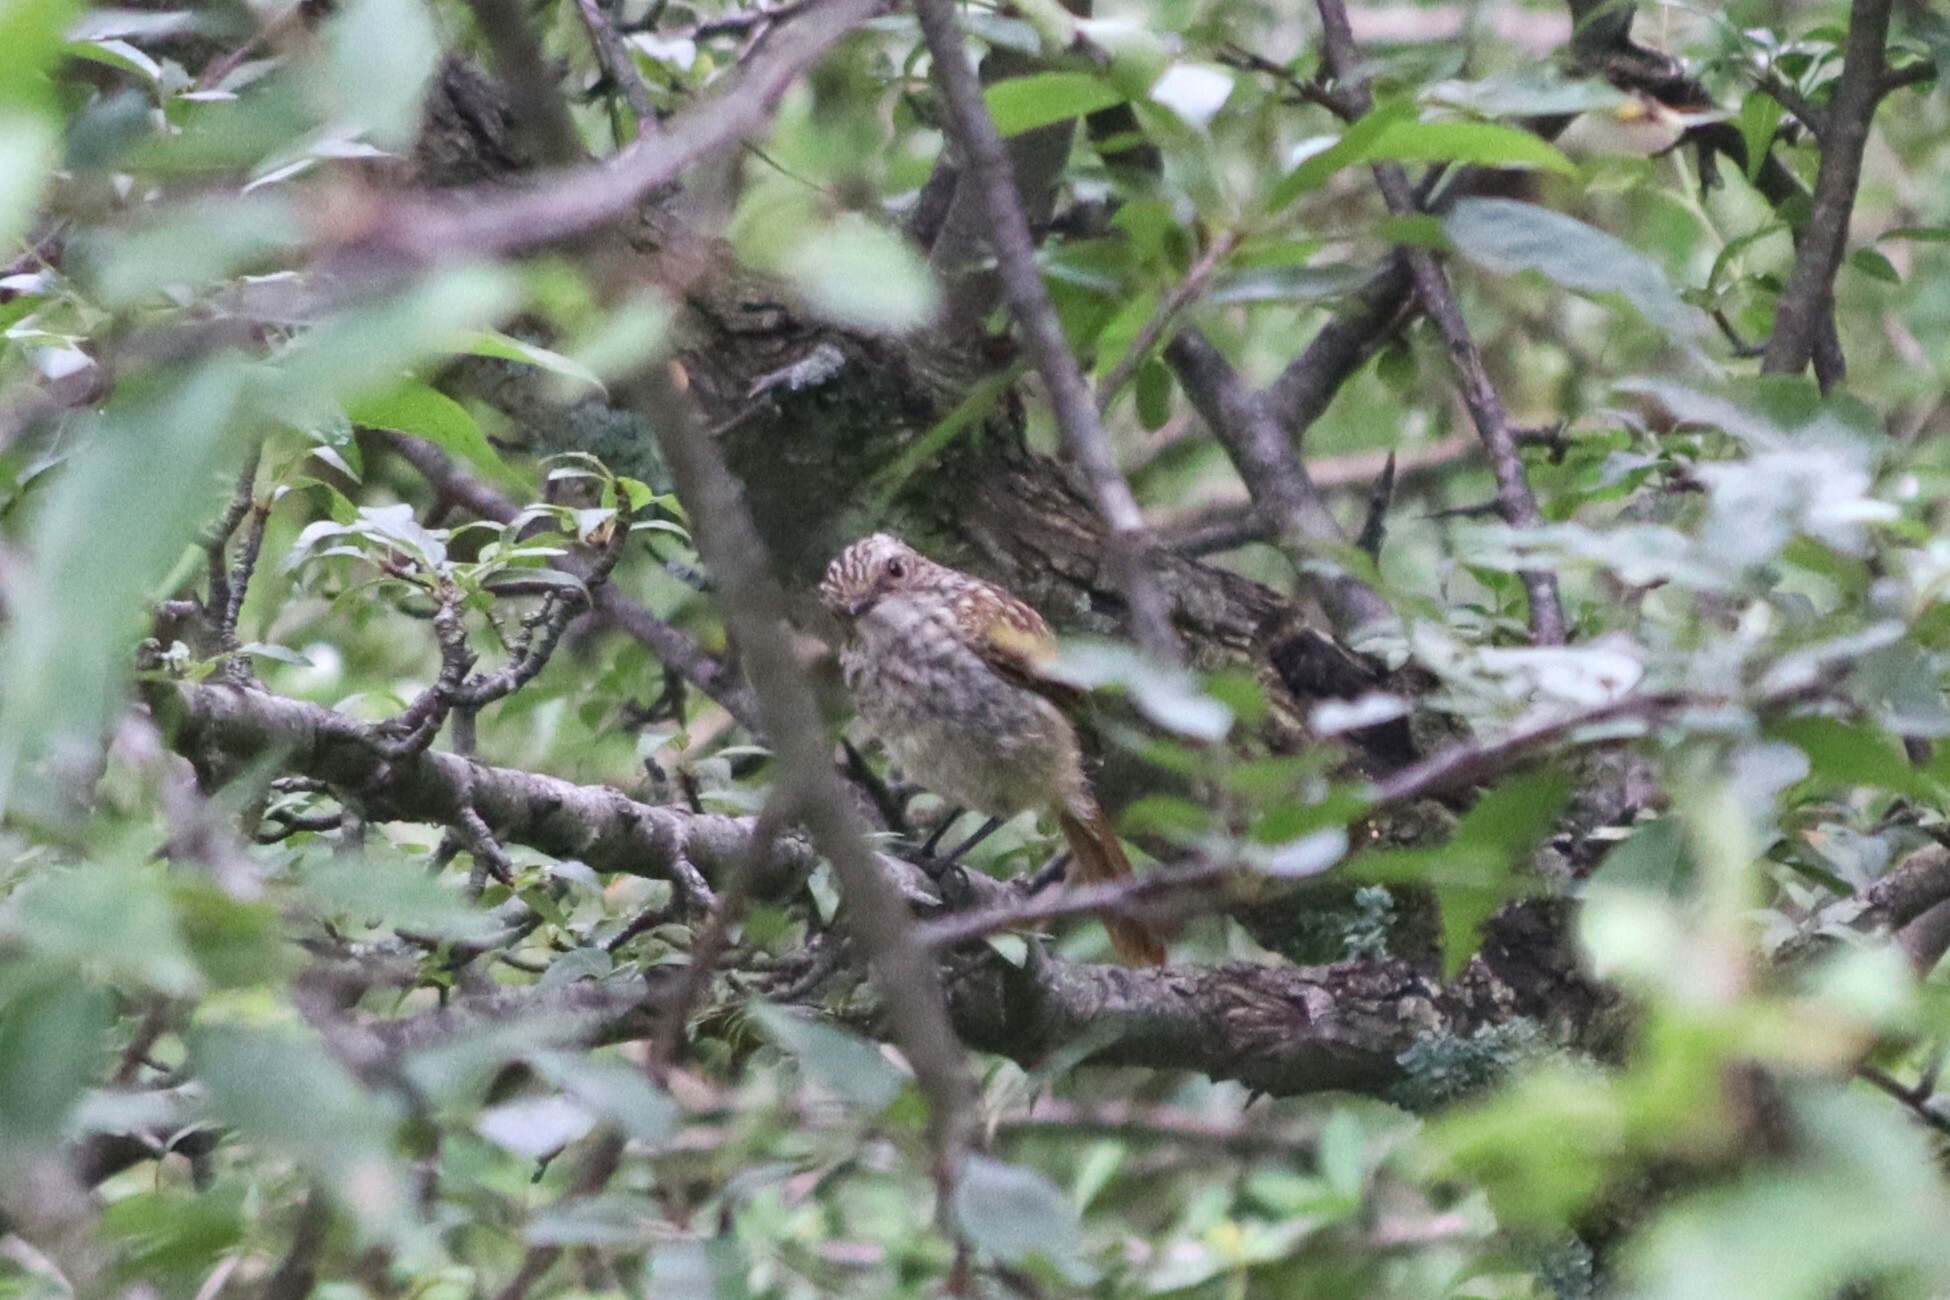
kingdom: Animalia
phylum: Chordata
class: Aves
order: Passeriformes
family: Muscicapidae
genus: Saxicola
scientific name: Saxicola ferreus
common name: Grey bush chat
